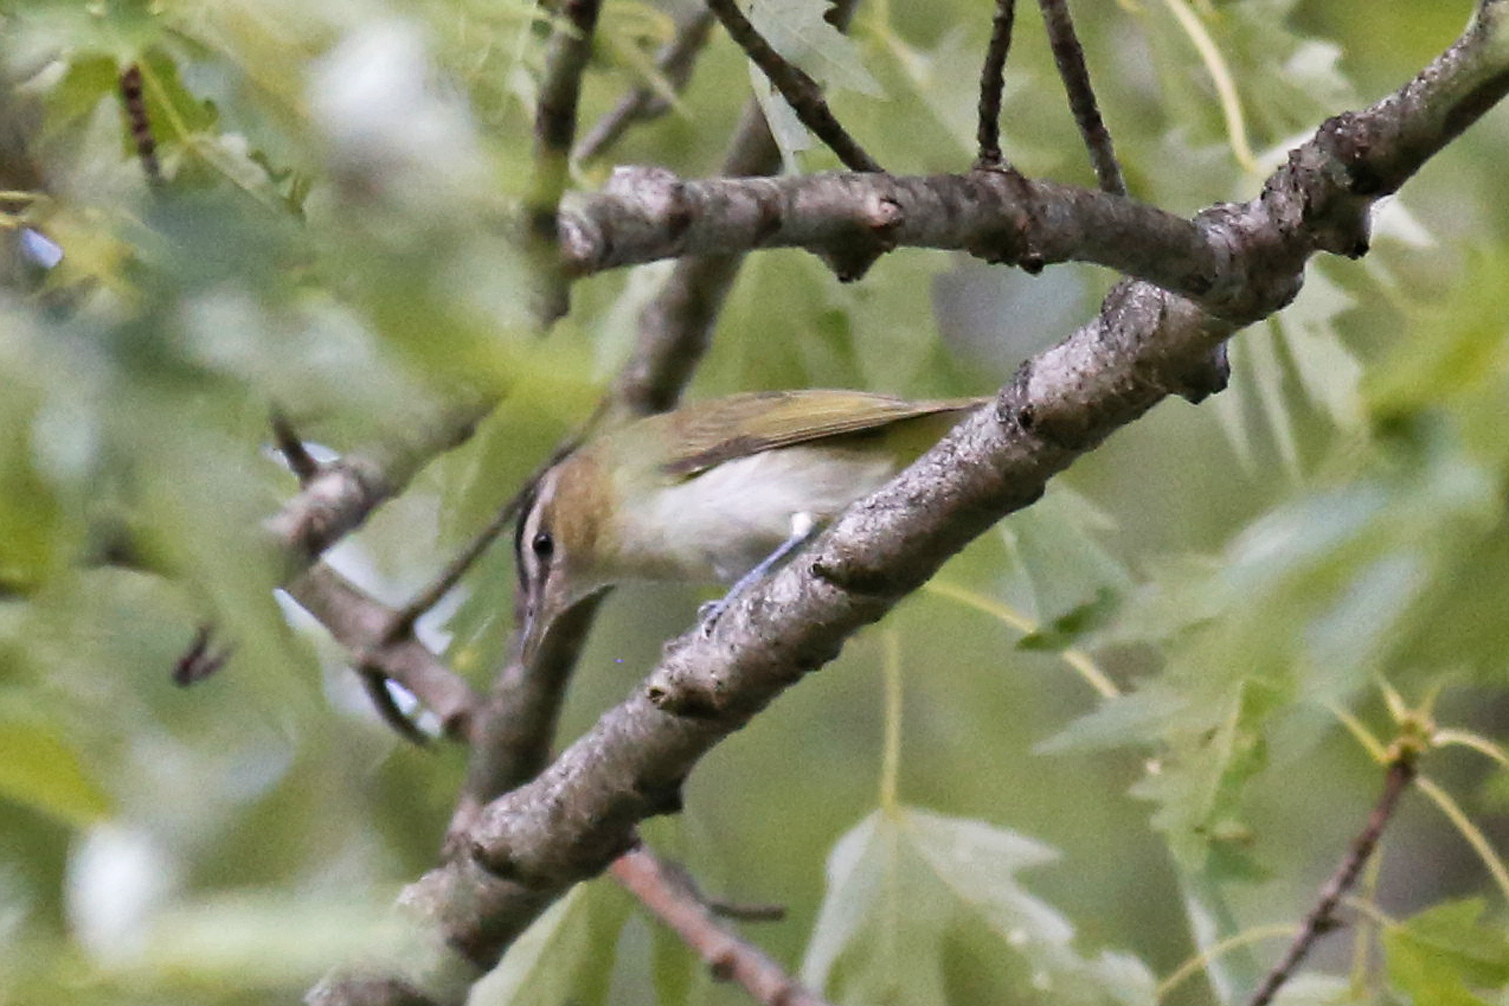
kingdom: Animalia
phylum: Chordata
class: Aves
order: Passeriformes
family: Vireonidae
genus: Vireo
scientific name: Vireo olivaceus
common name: Red-eyed vireo
